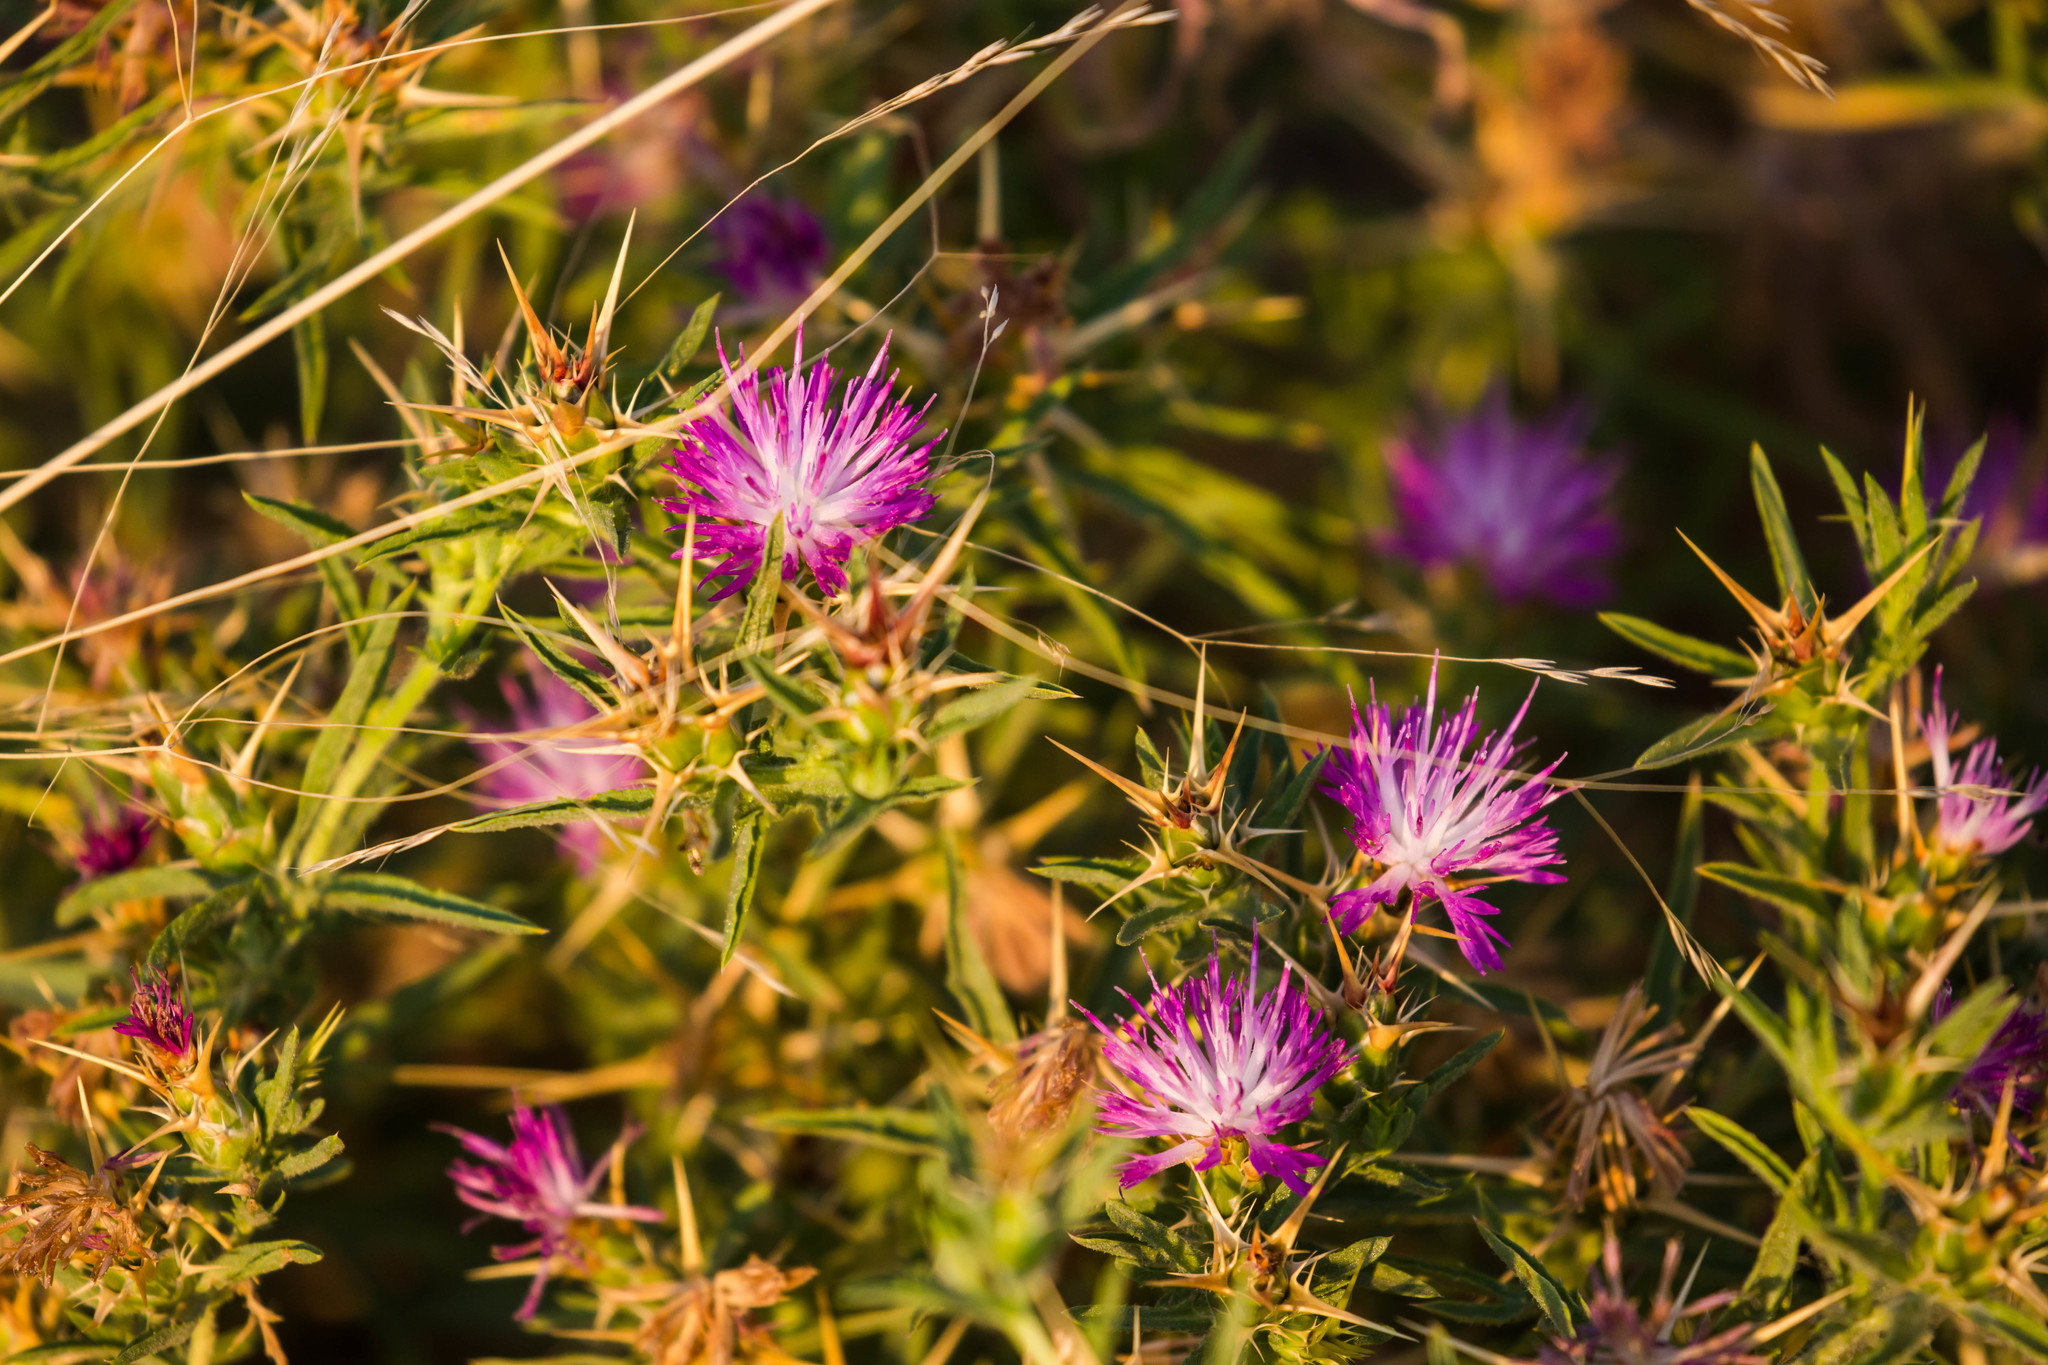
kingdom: Plantae
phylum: Tracheophyta
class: Magnoliopsida
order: Asterales
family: Asteraceae
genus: Centaurea
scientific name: Centaurea calcitrapa
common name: Red star-thistle
